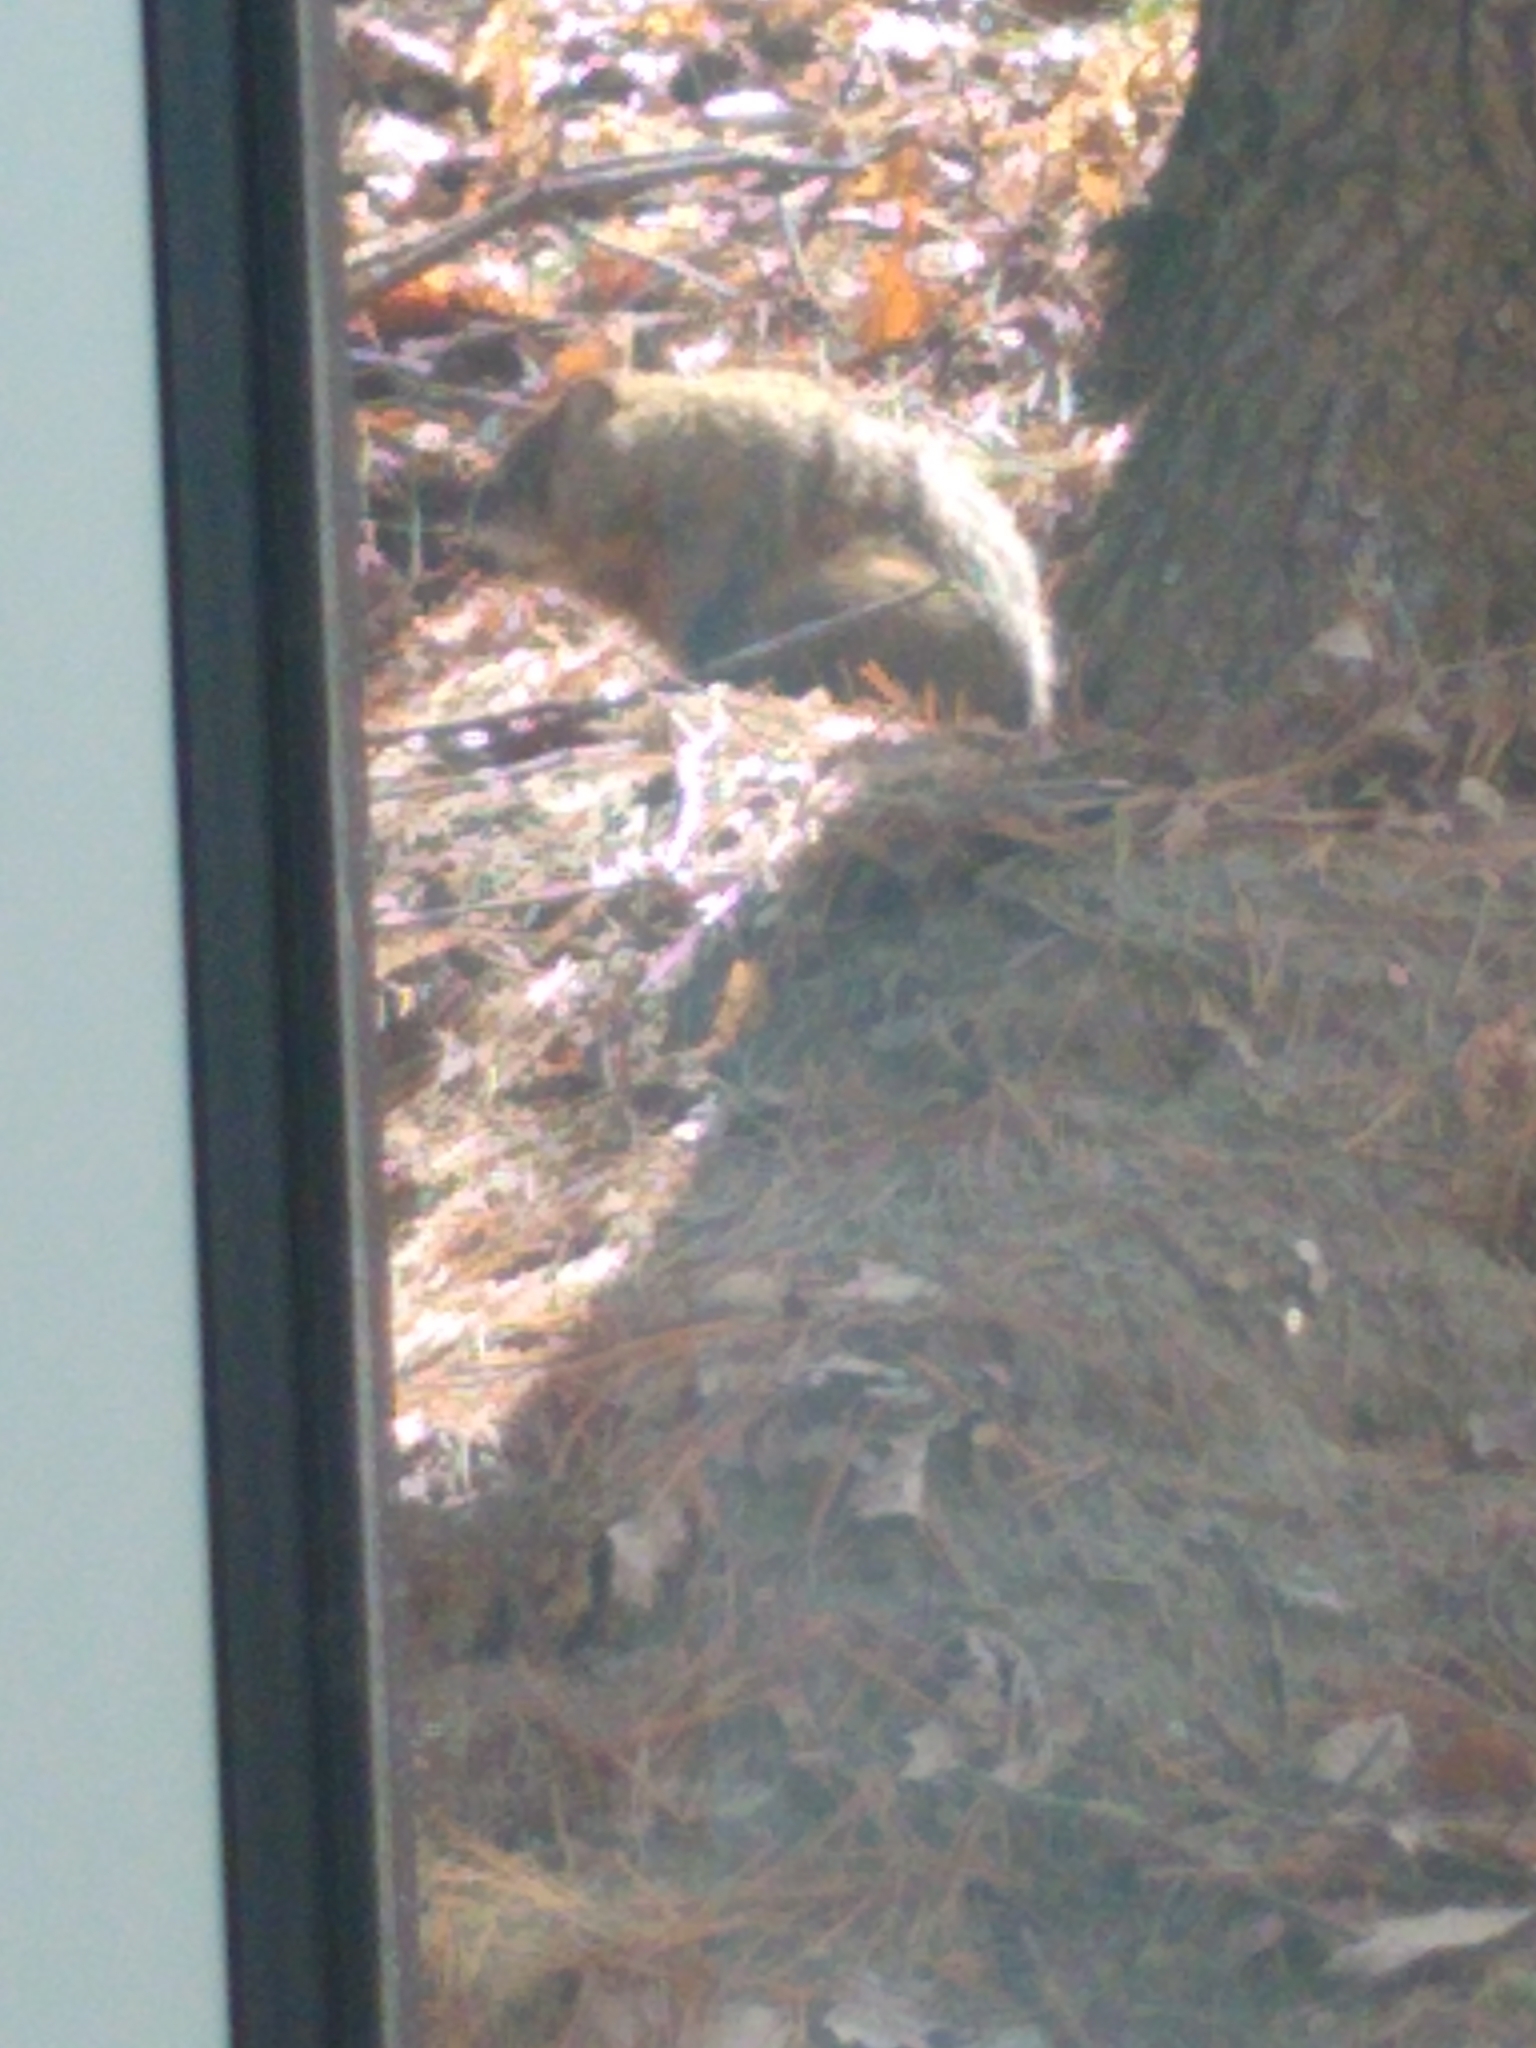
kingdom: Animalia
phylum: Chordata
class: Mammalia
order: Rodentia
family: Sciuridae
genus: Marmota
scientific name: Marmota monax
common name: Groundhog
